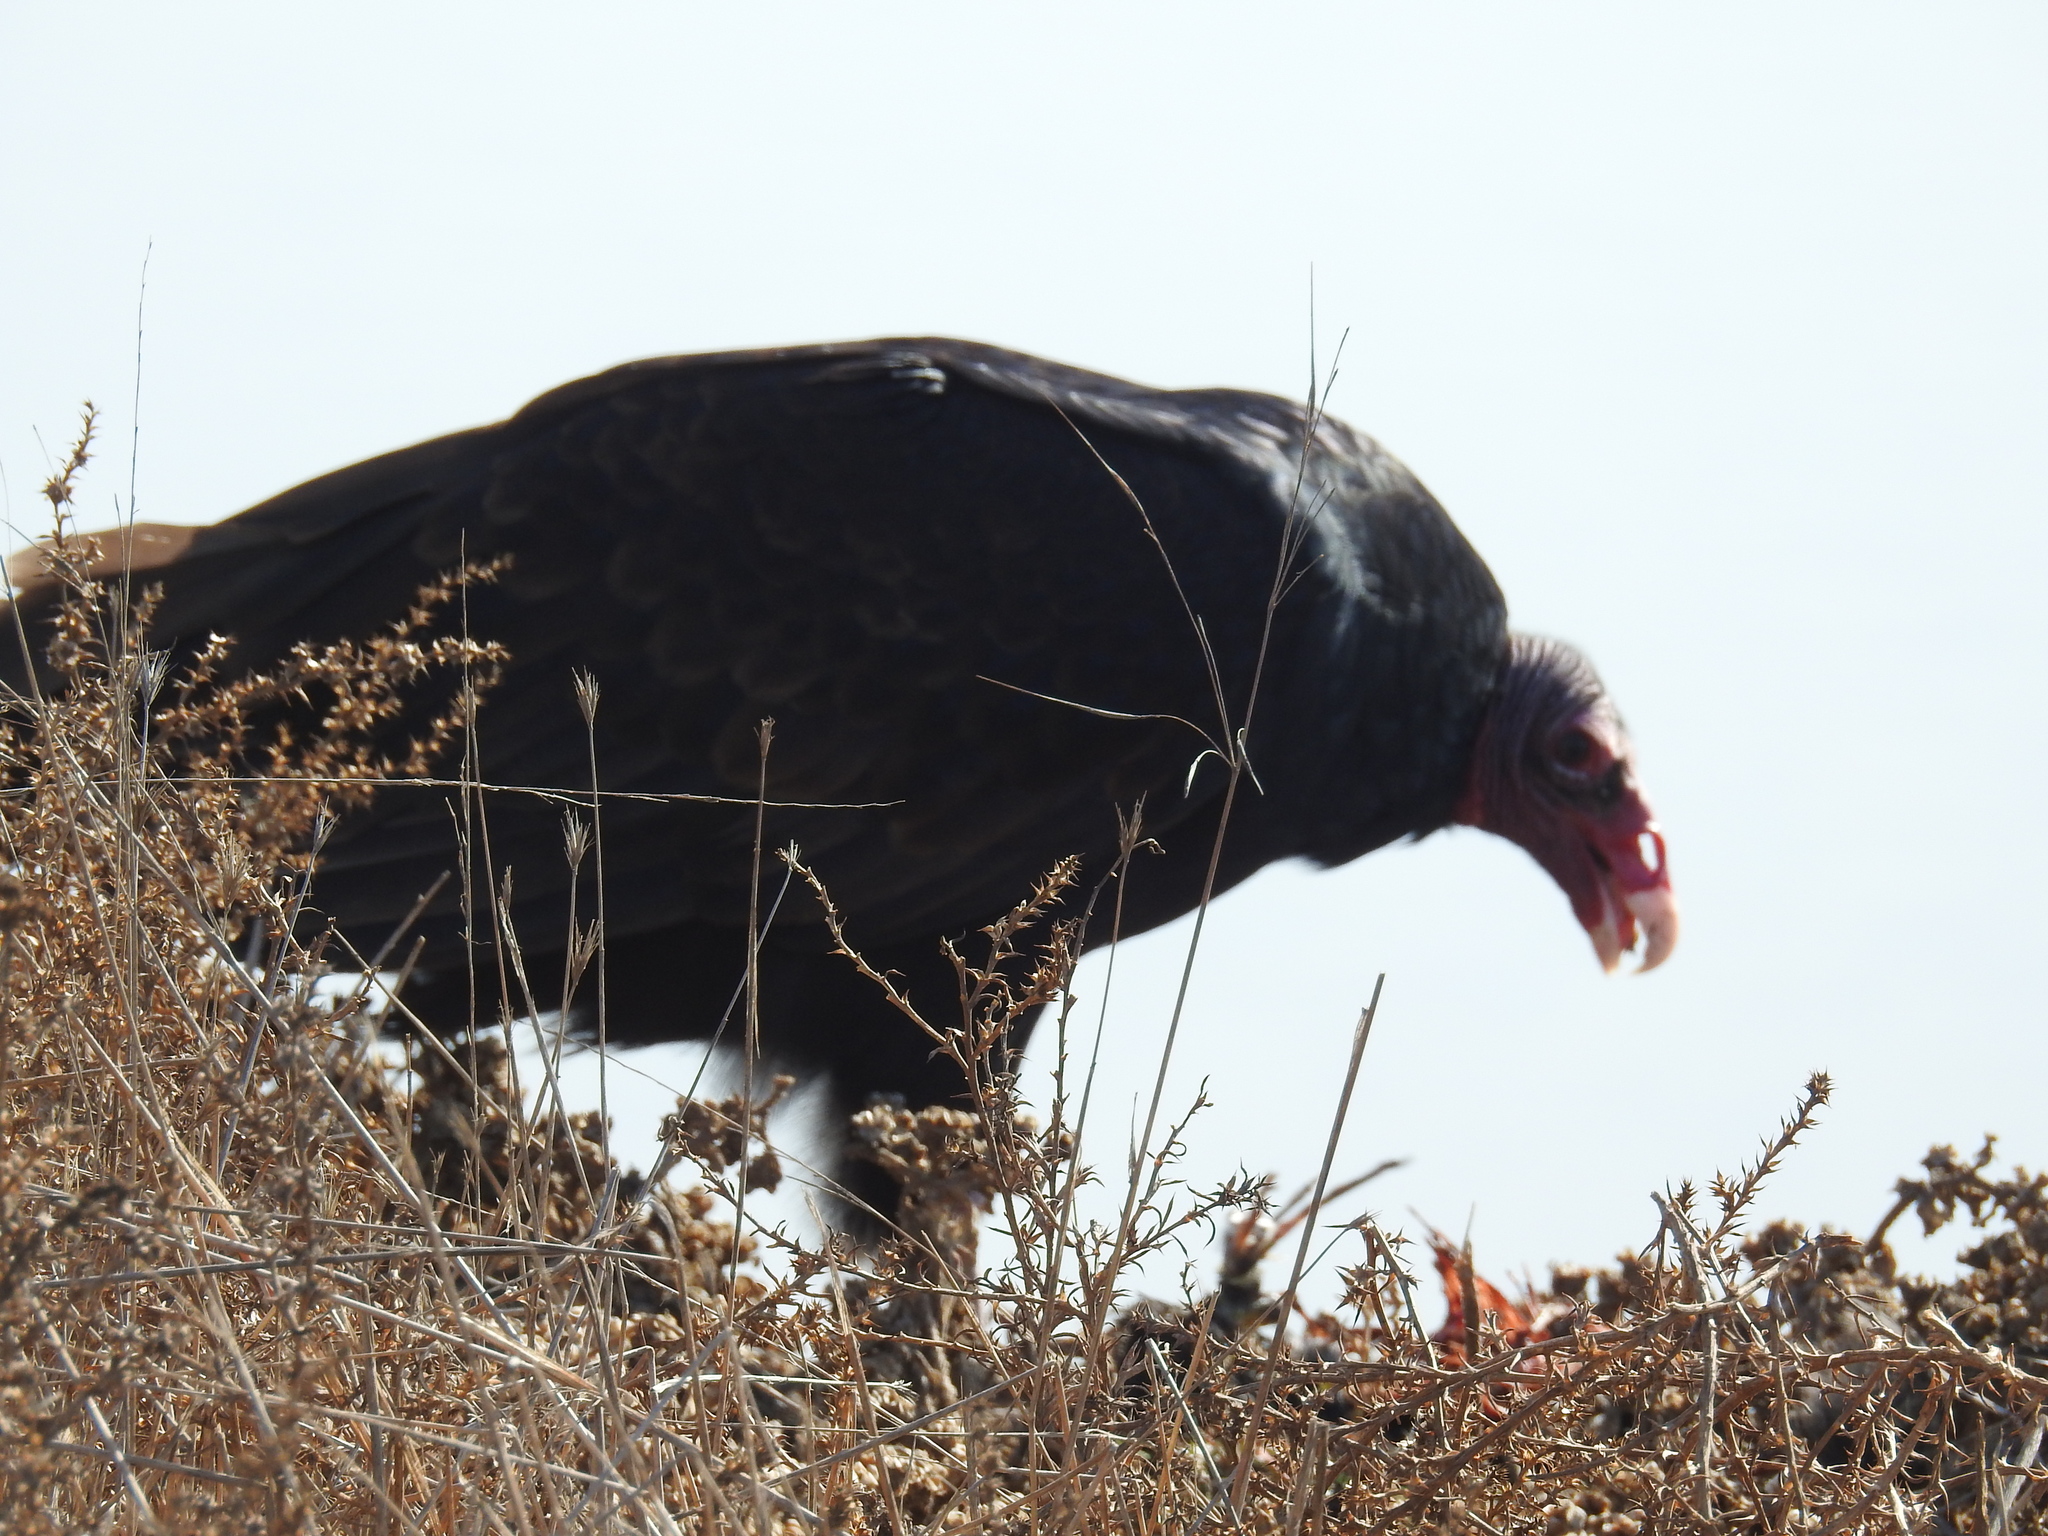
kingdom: Animalia
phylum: Chordata
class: Aves
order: Accipitriformes
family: Cathartidae
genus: Cathartes
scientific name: Cathartes aura
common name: Turkey vulture
